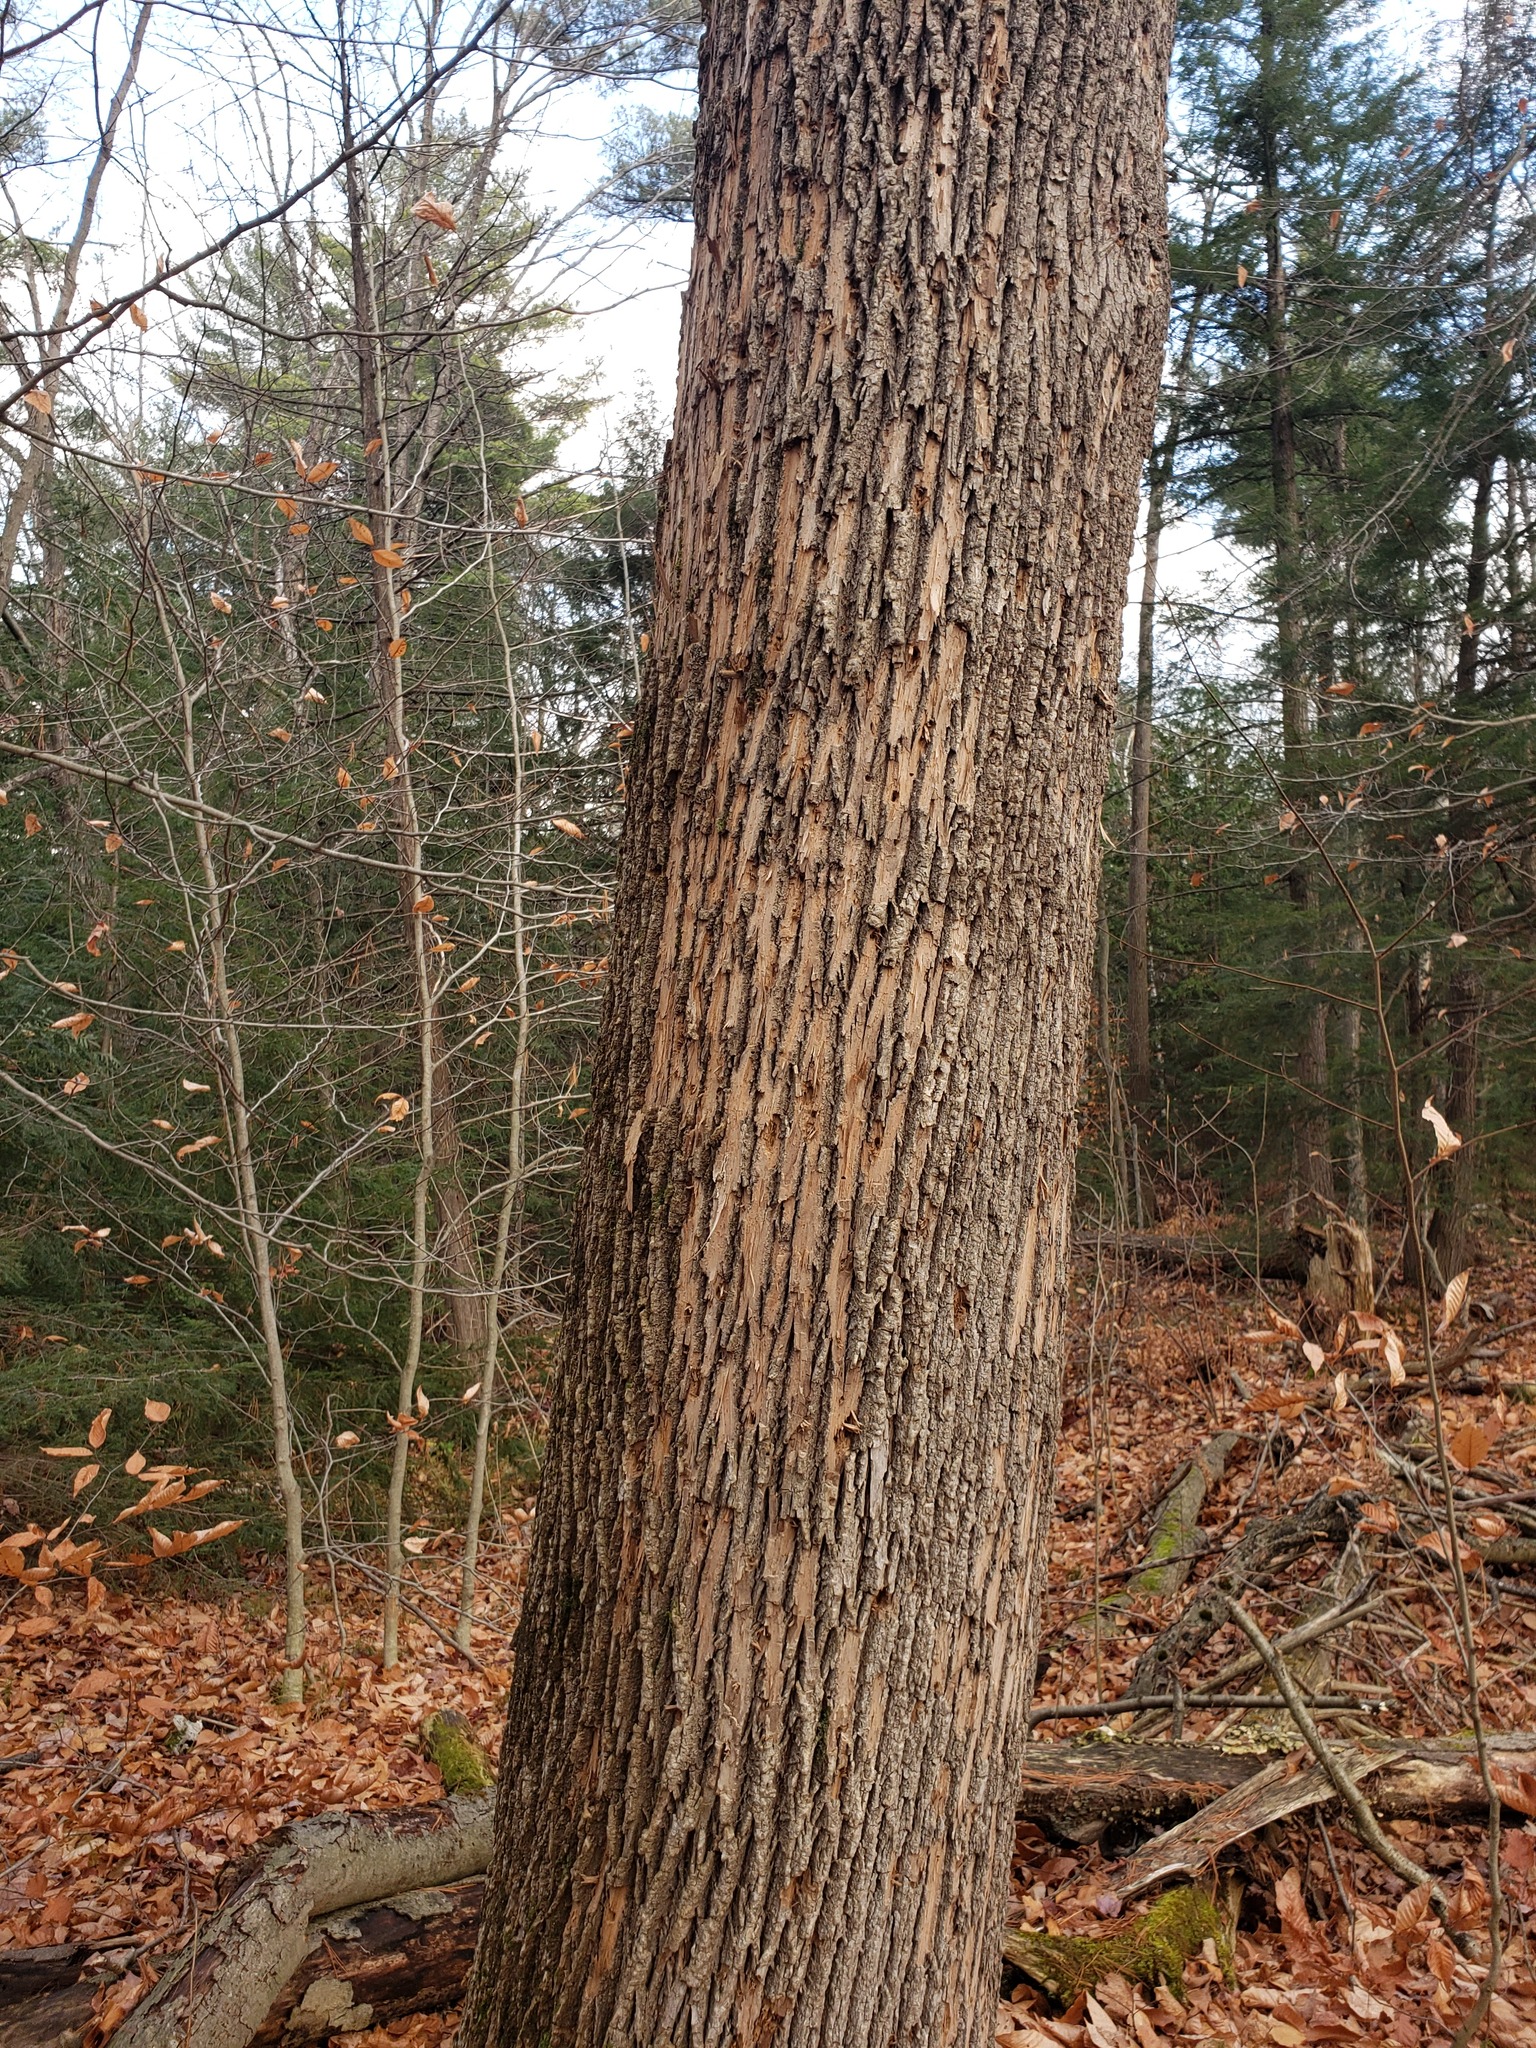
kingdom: Animalia
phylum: Arthropoda
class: Insecta
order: Coleoptera
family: Buprestidae
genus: Agrilus
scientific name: Agrilus planipennis
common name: Emerald ash borer
